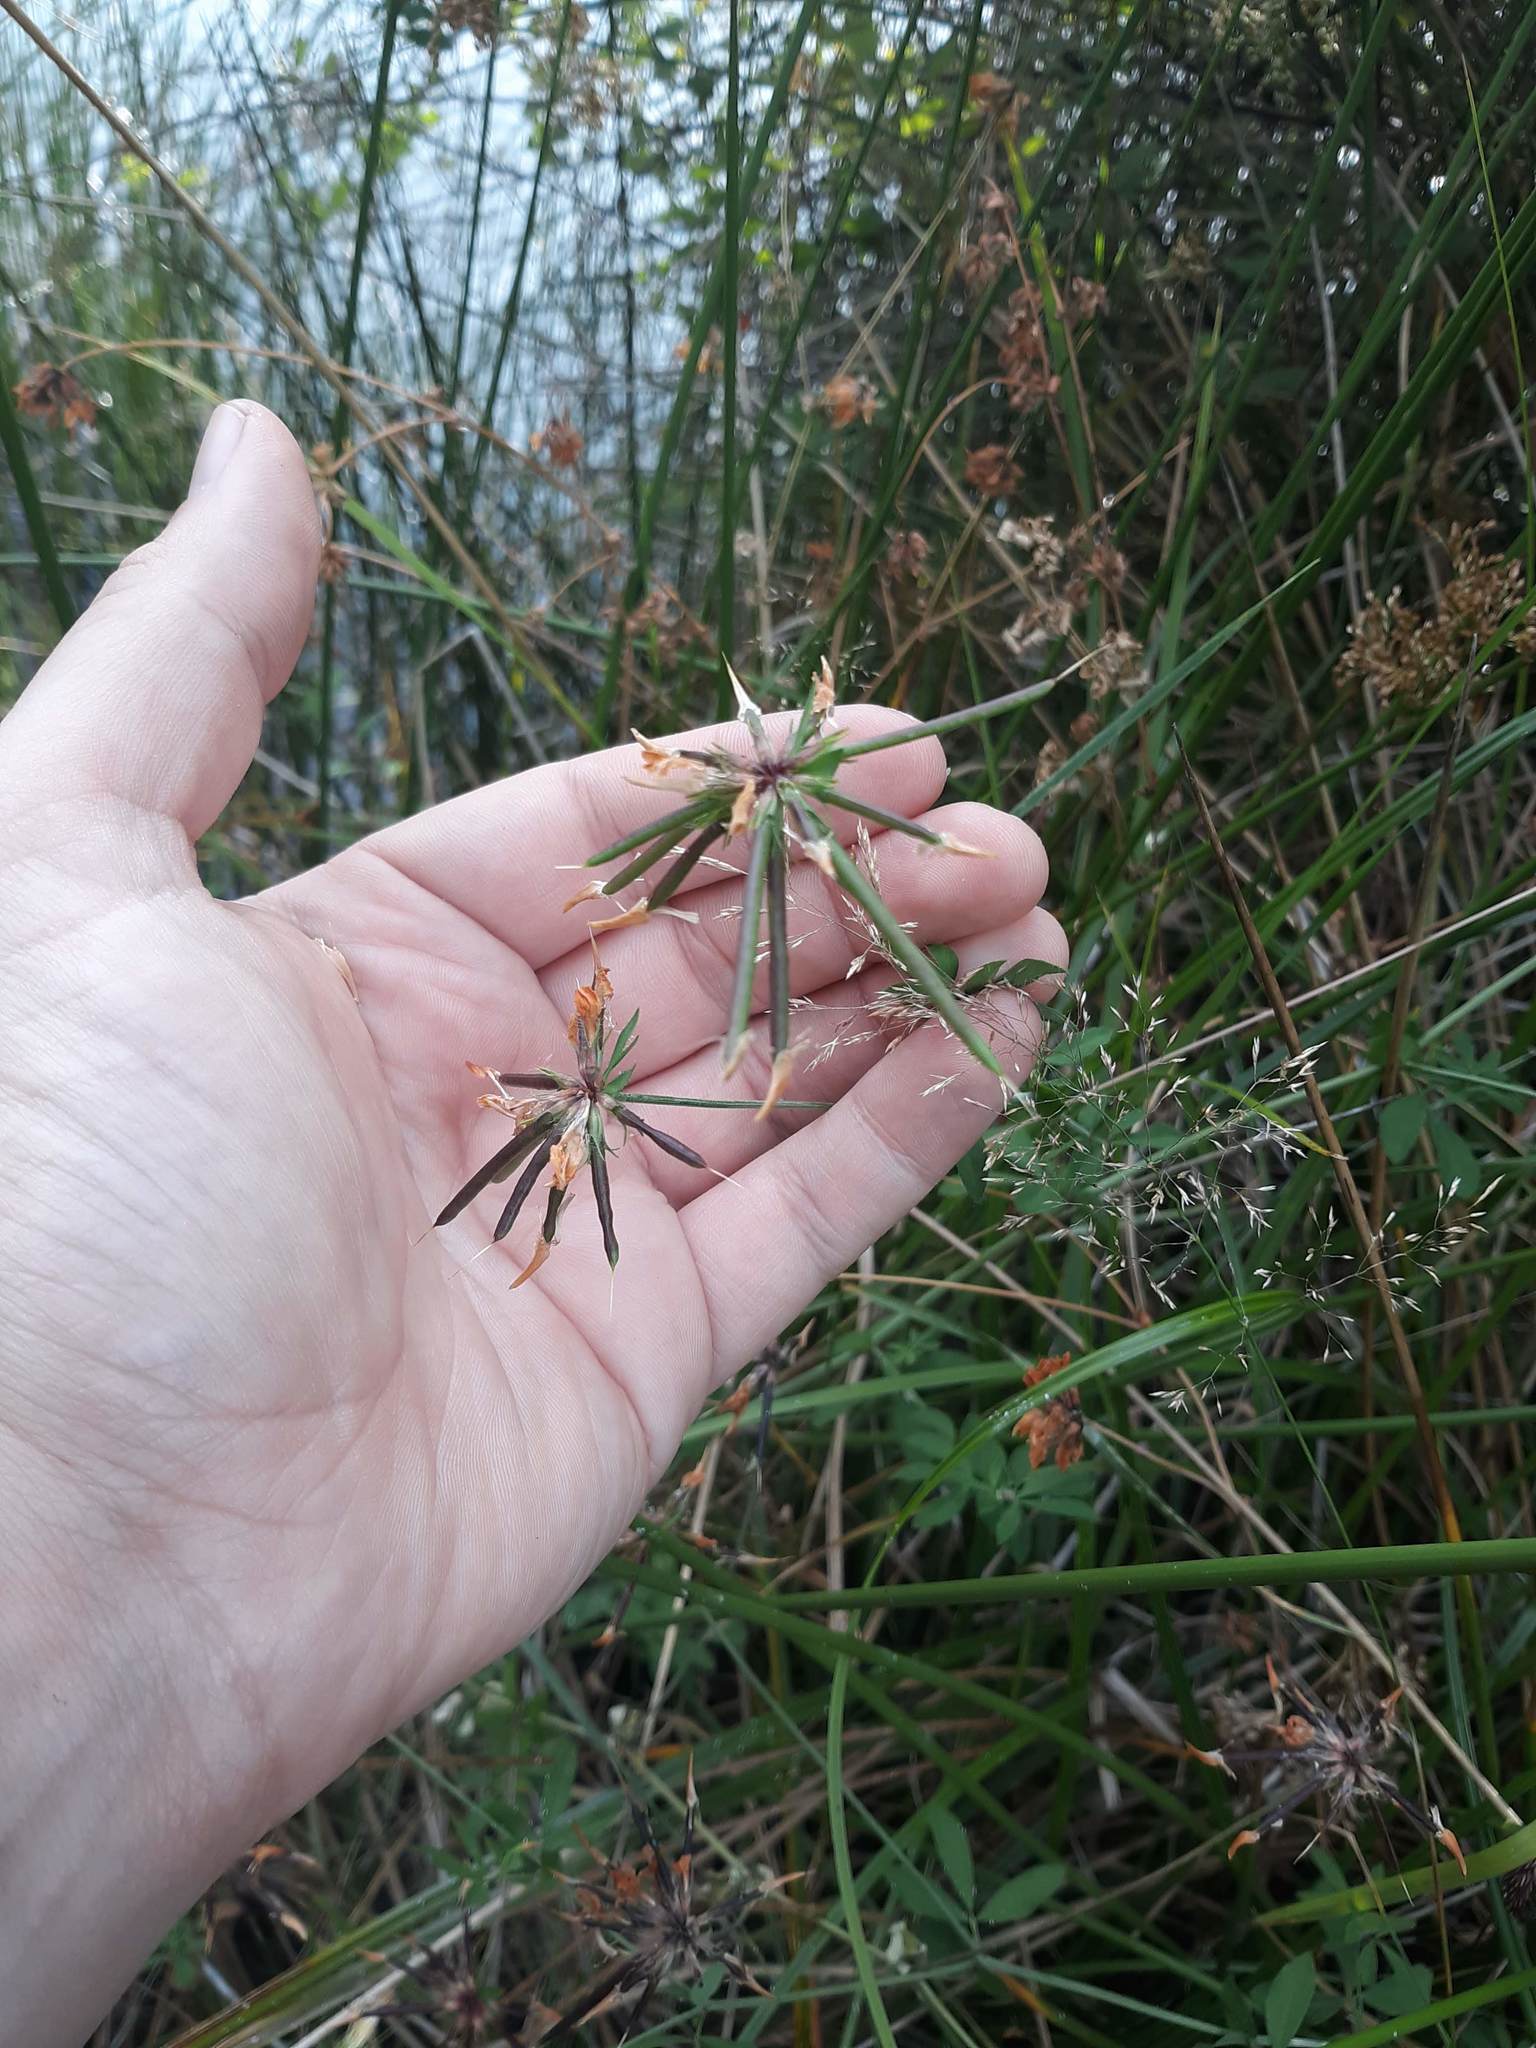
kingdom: Plantae
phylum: Tracheophyta
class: Magnoliopsida
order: Fabales
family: Fabaceae
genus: Lotus
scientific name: Lotus pedunculatus
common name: Greater birdsfoot-trefoil
